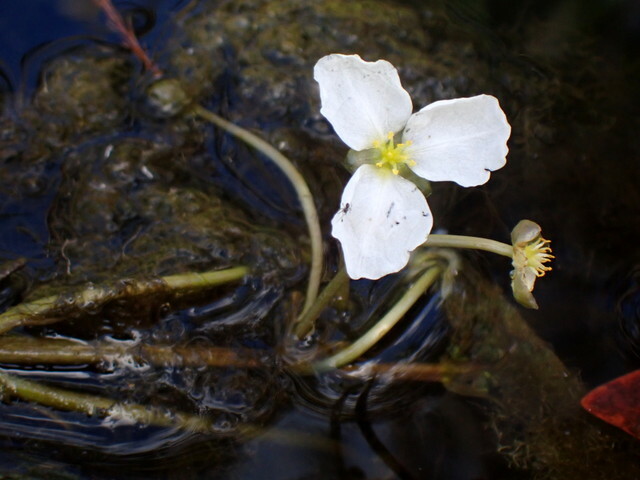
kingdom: Plantae
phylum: Tracheophyta
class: Liliopsida
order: Alismatales
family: Alismataceae
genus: Sagittaria
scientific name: Sagittaria kurziana
